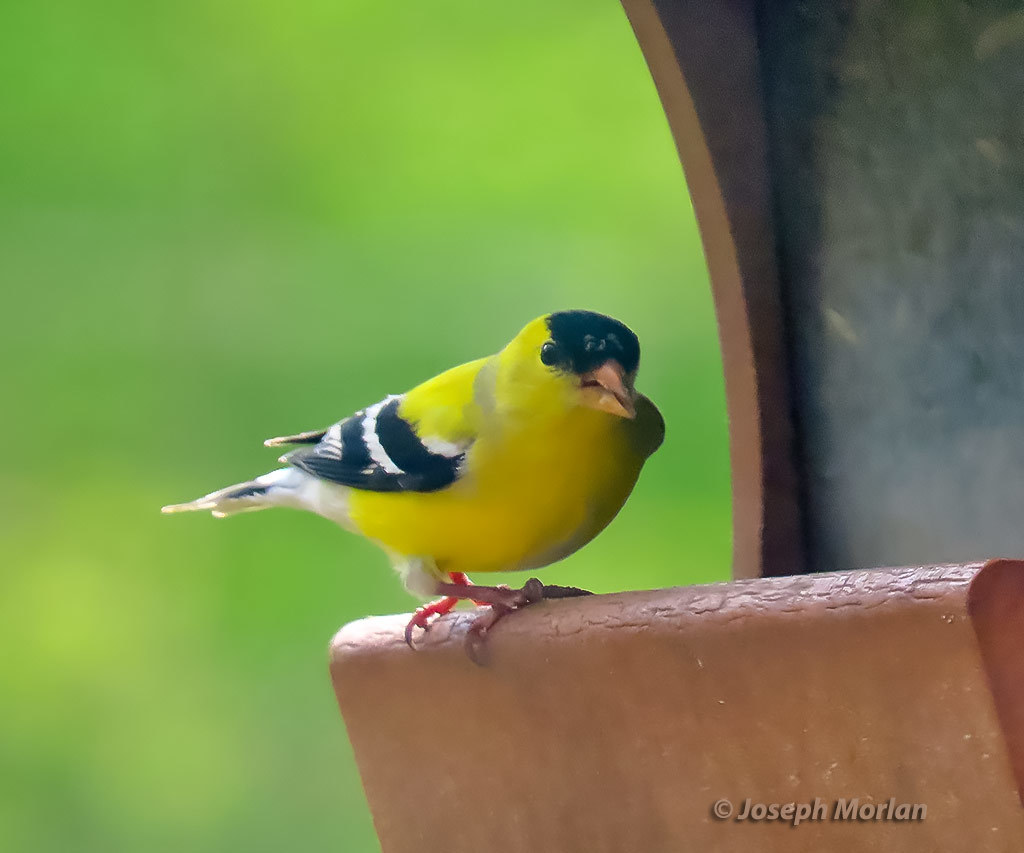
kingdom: Animalia
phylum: Chordata
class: Aves
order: Passeriformes
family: Fringillidae
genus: Spinus
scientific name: Spinus tristis
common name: American goldfinch
